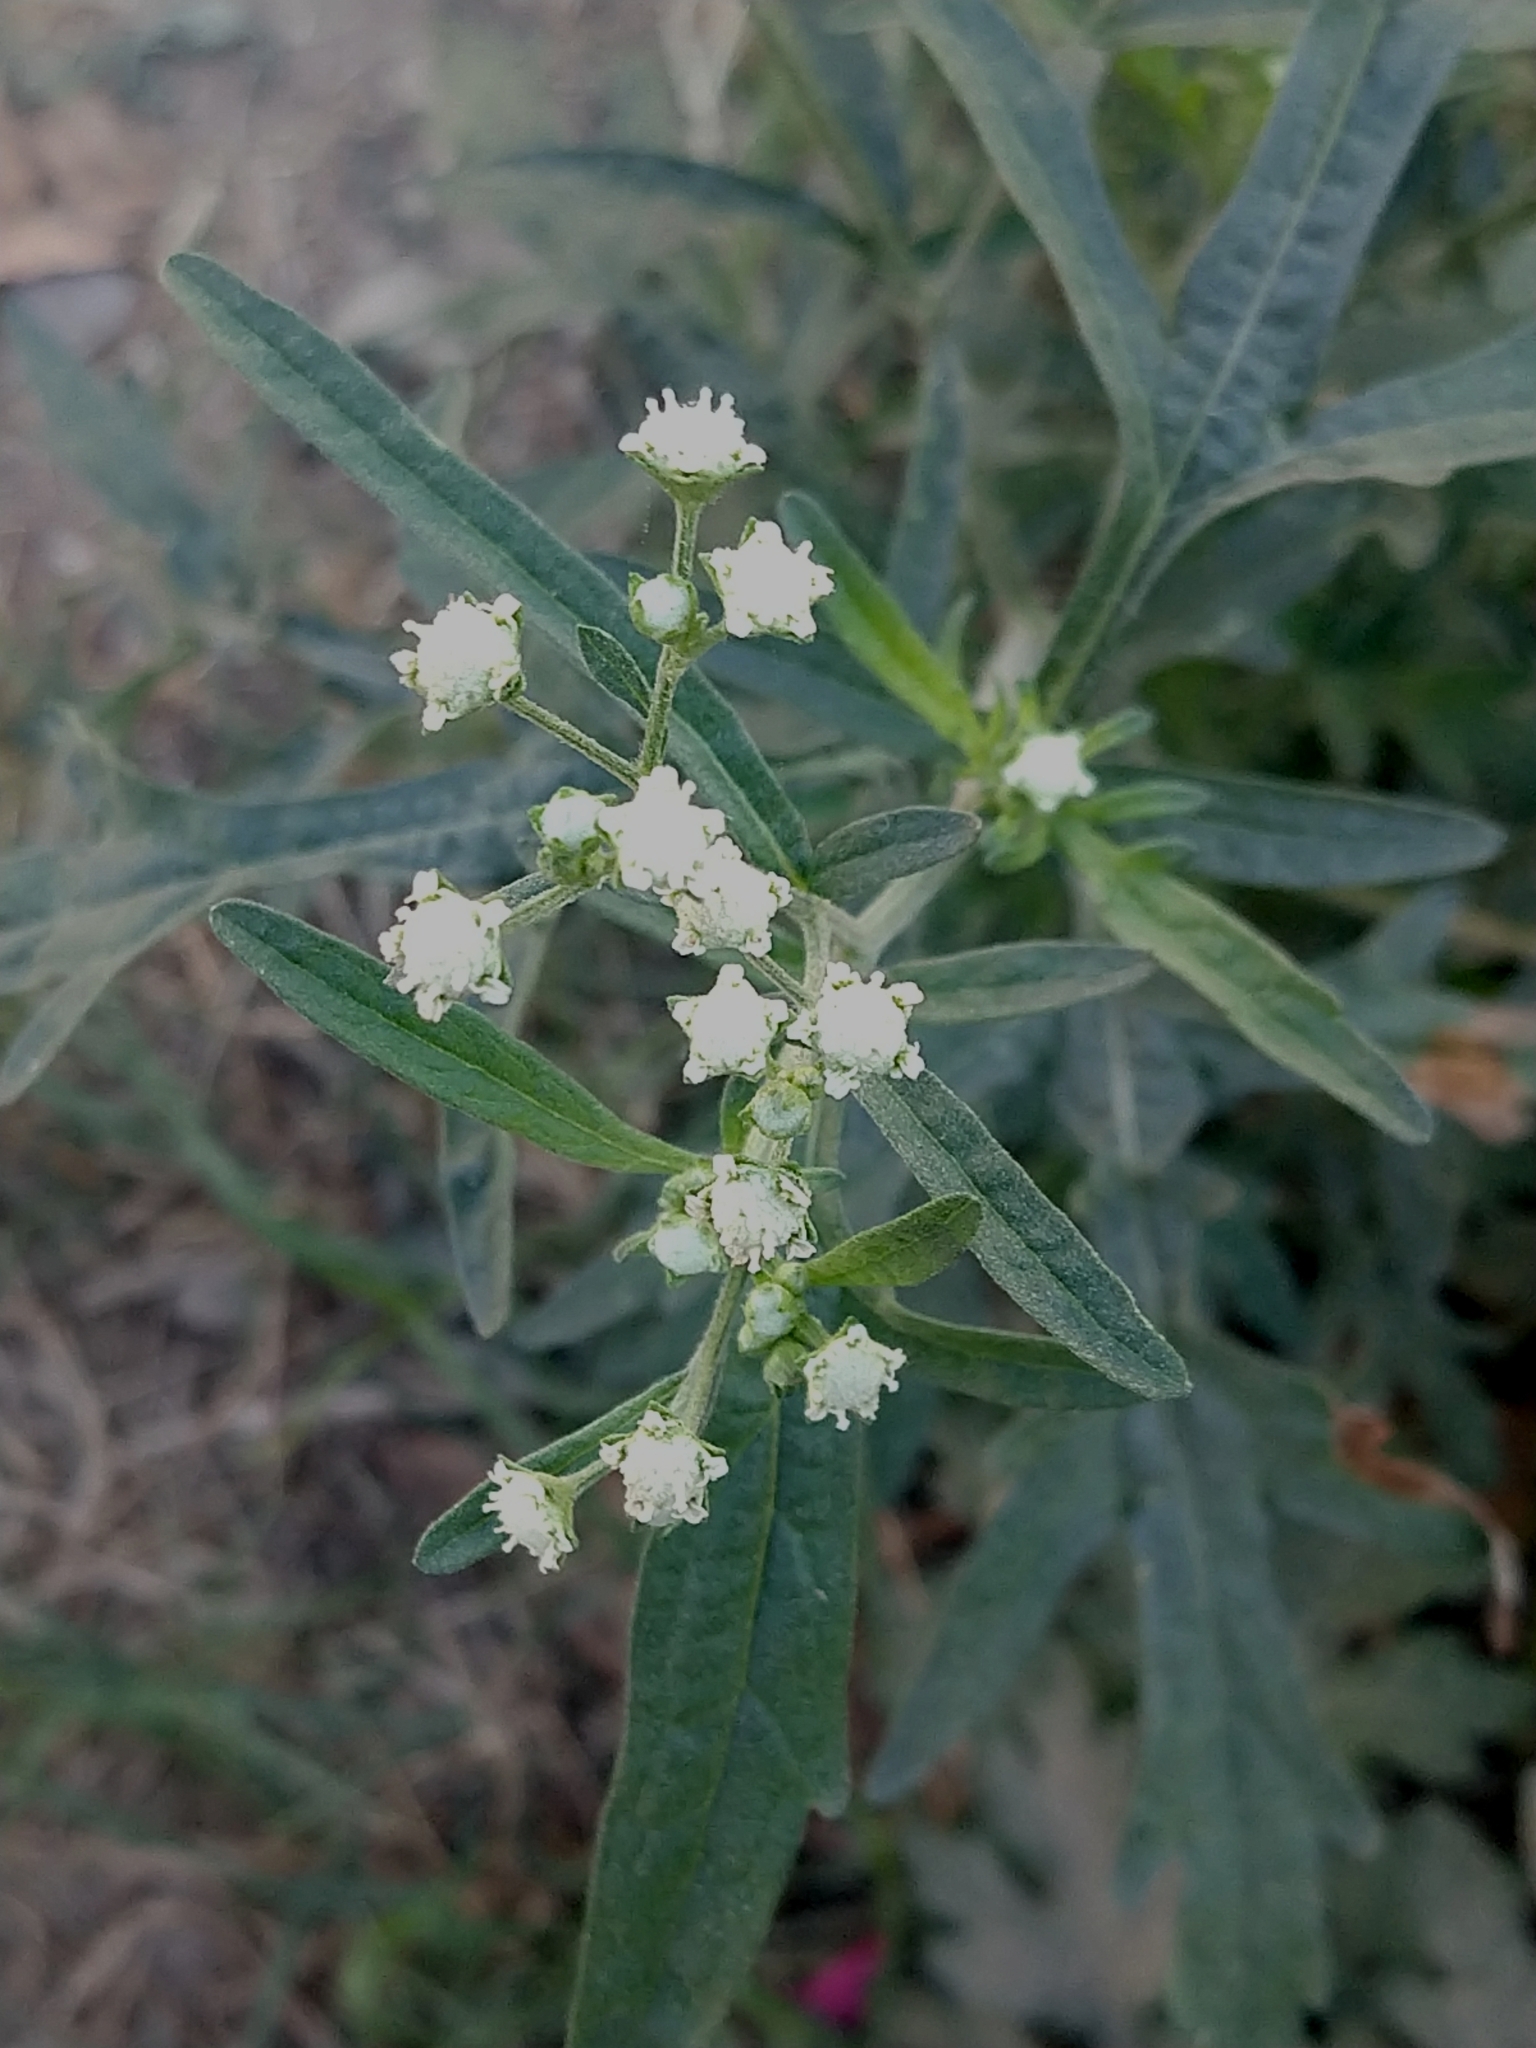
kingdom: Plantae
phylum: Tracheophyta
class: Magnoliopsida
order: Asterales
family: Asteraceae
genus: Parthenium
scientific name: Parthenium hysterophorus
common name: Santa maria feverfew
